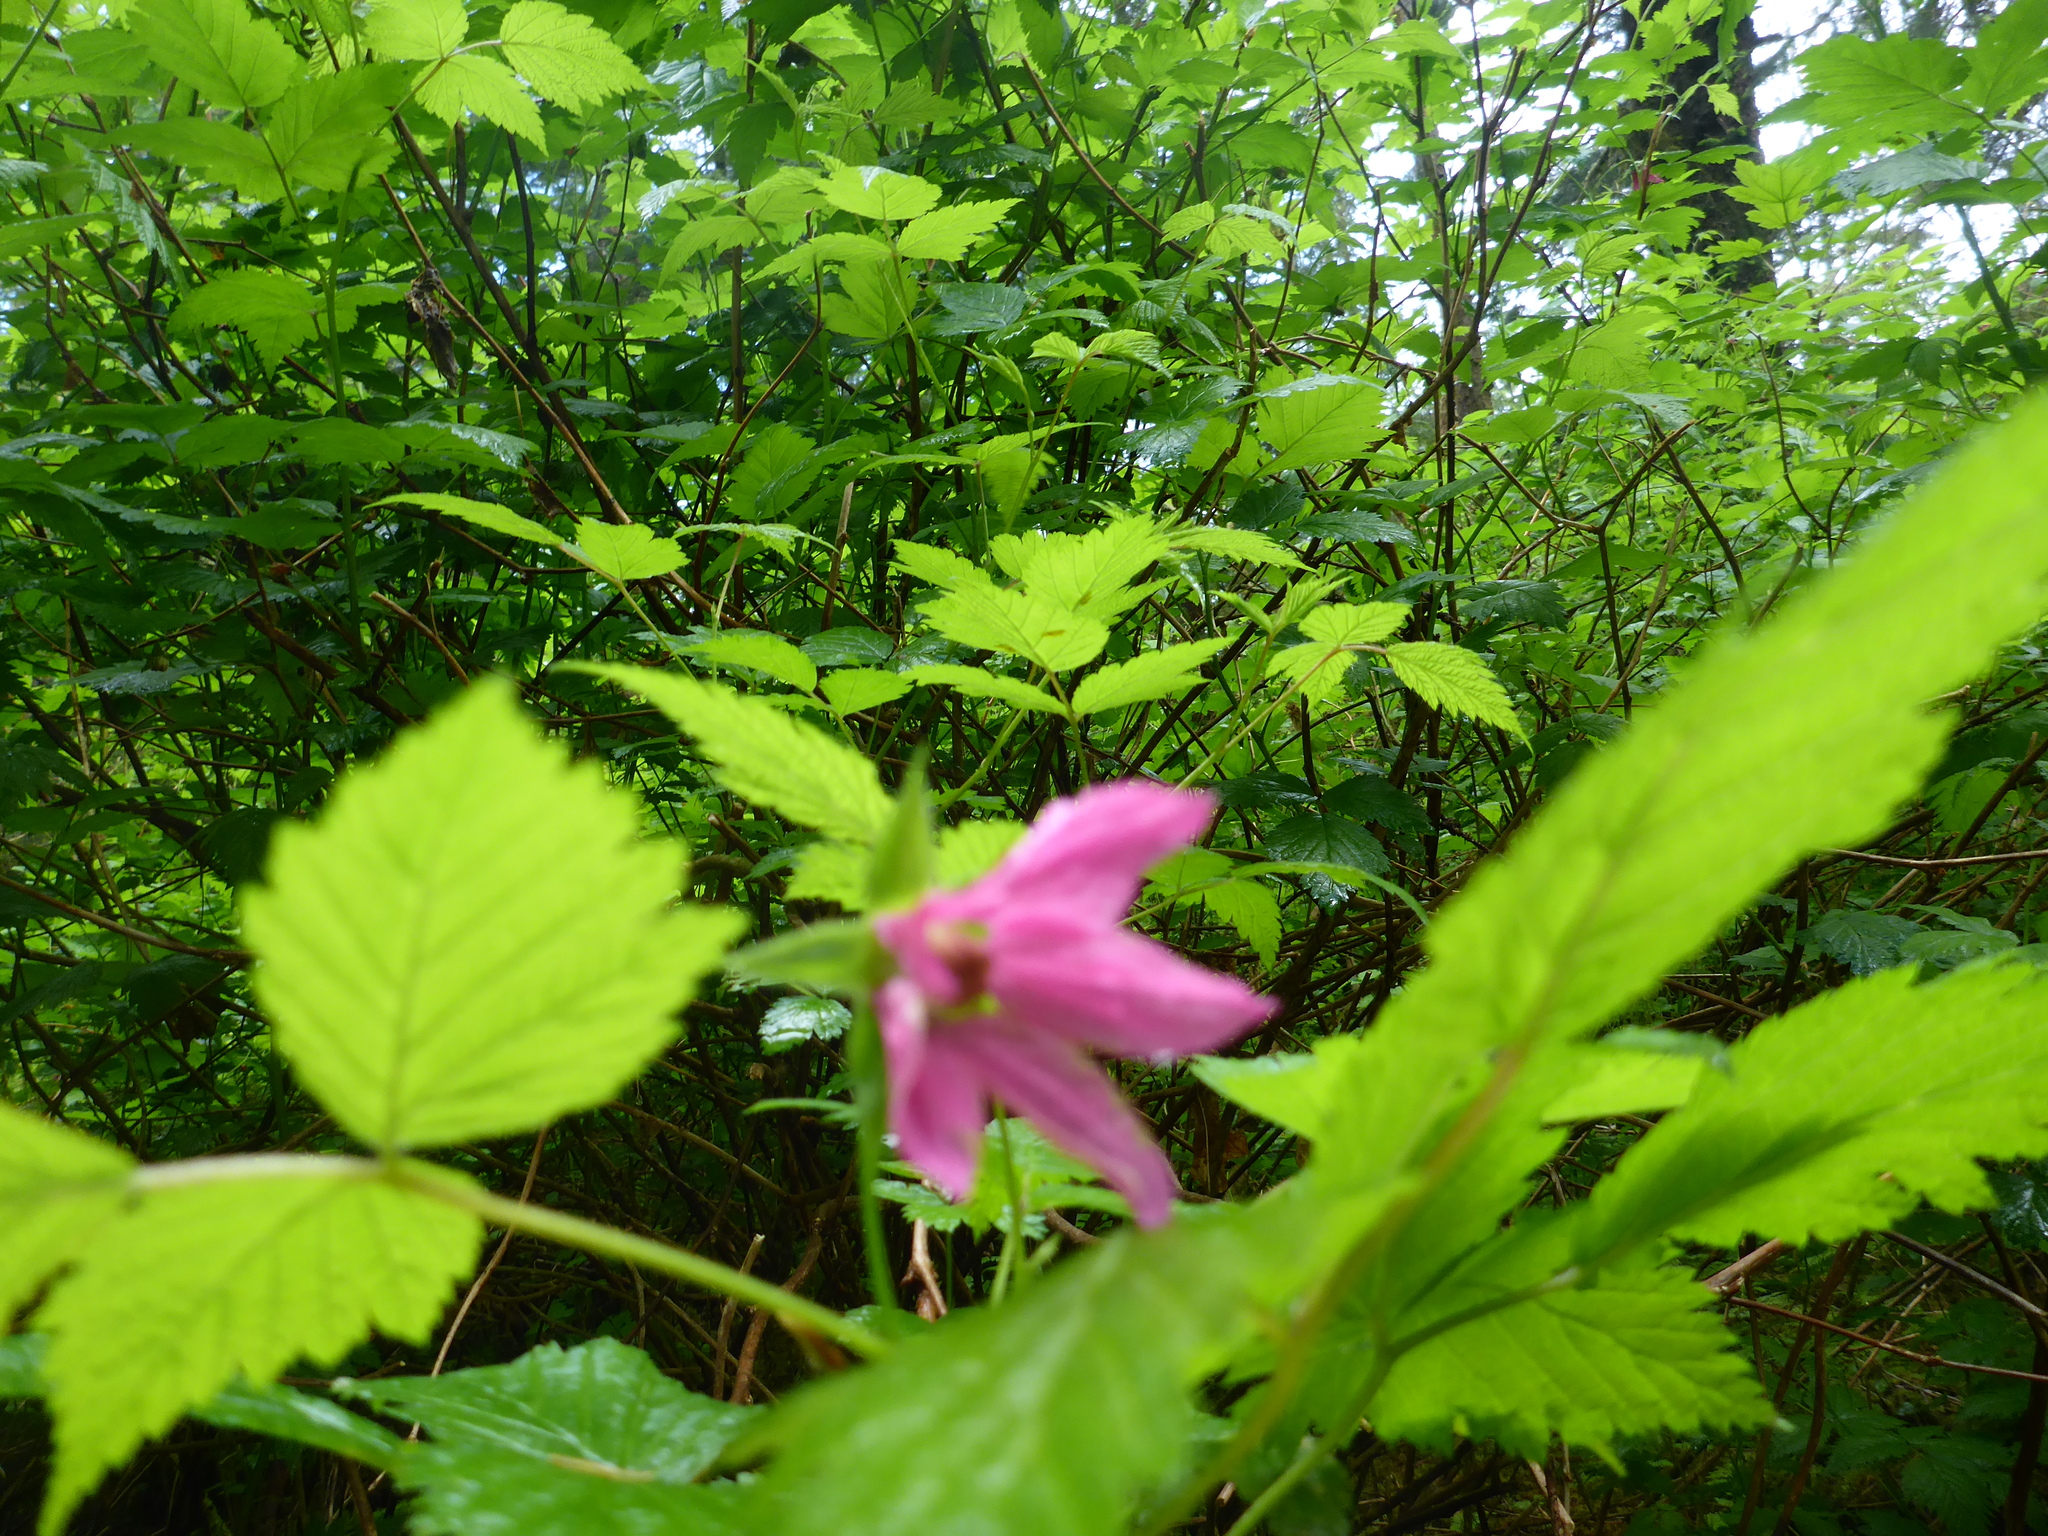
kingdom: Plantae
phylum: Tracheophyta
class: Magnoliopsida
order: Rosales
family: Rosaceae
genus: Rubus
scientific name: Rubus spectabilis
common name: Salmonberry
